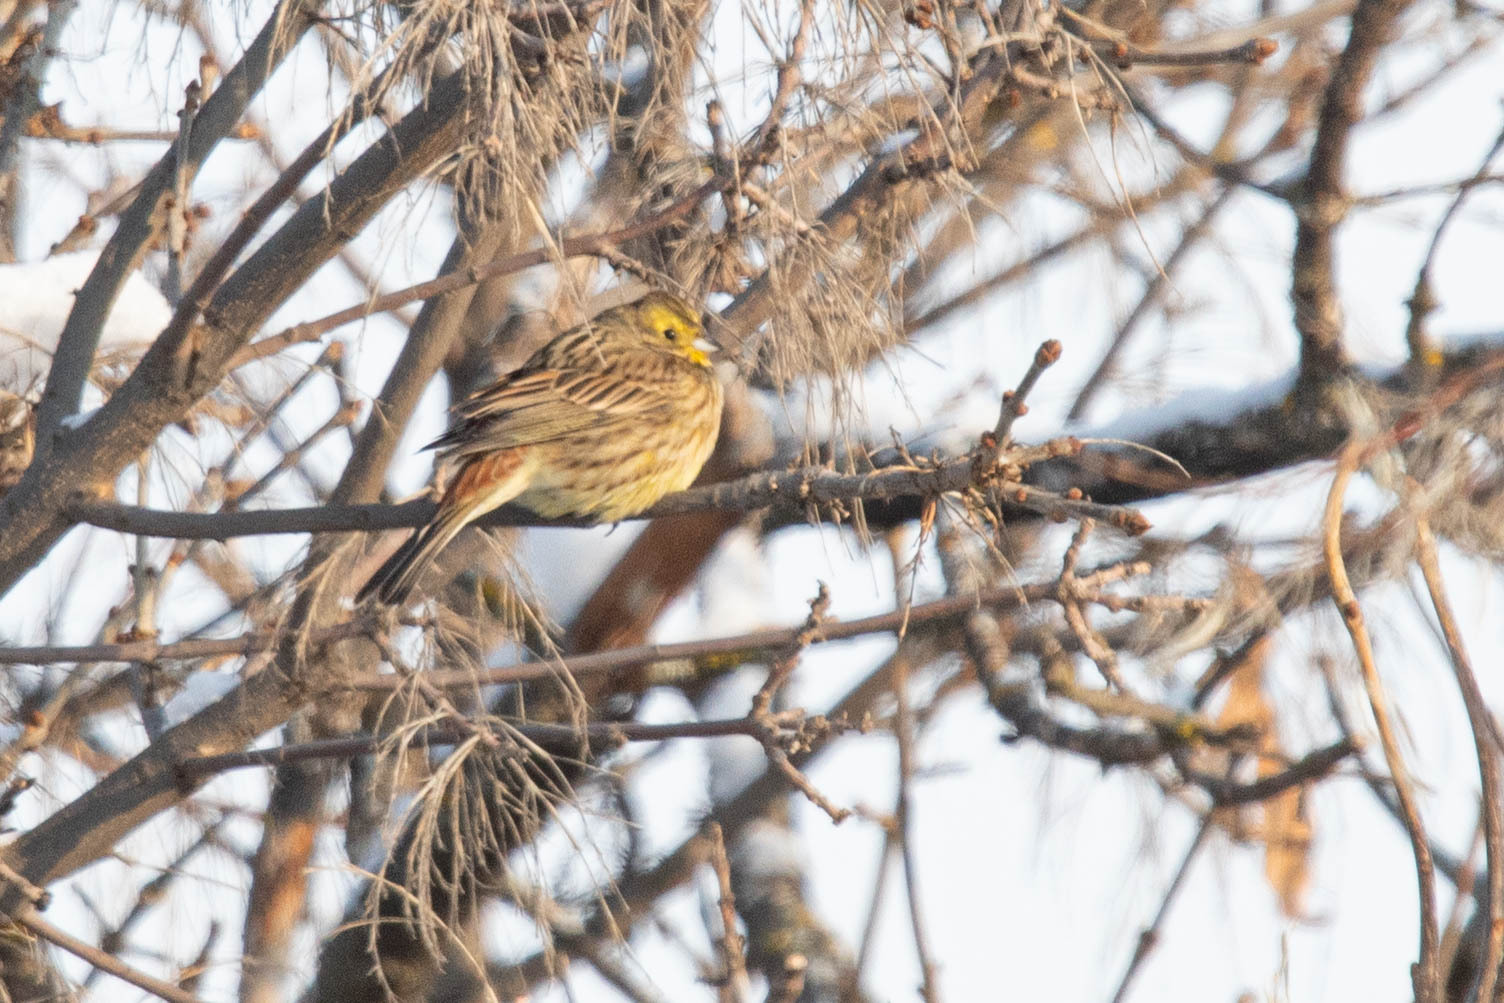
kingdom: Animalia
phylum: Chordata
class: Aves
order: Passeriformes
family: Emberizidae
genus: Emberiza
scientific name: Emberiza citrinella
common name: Yellowhammer
